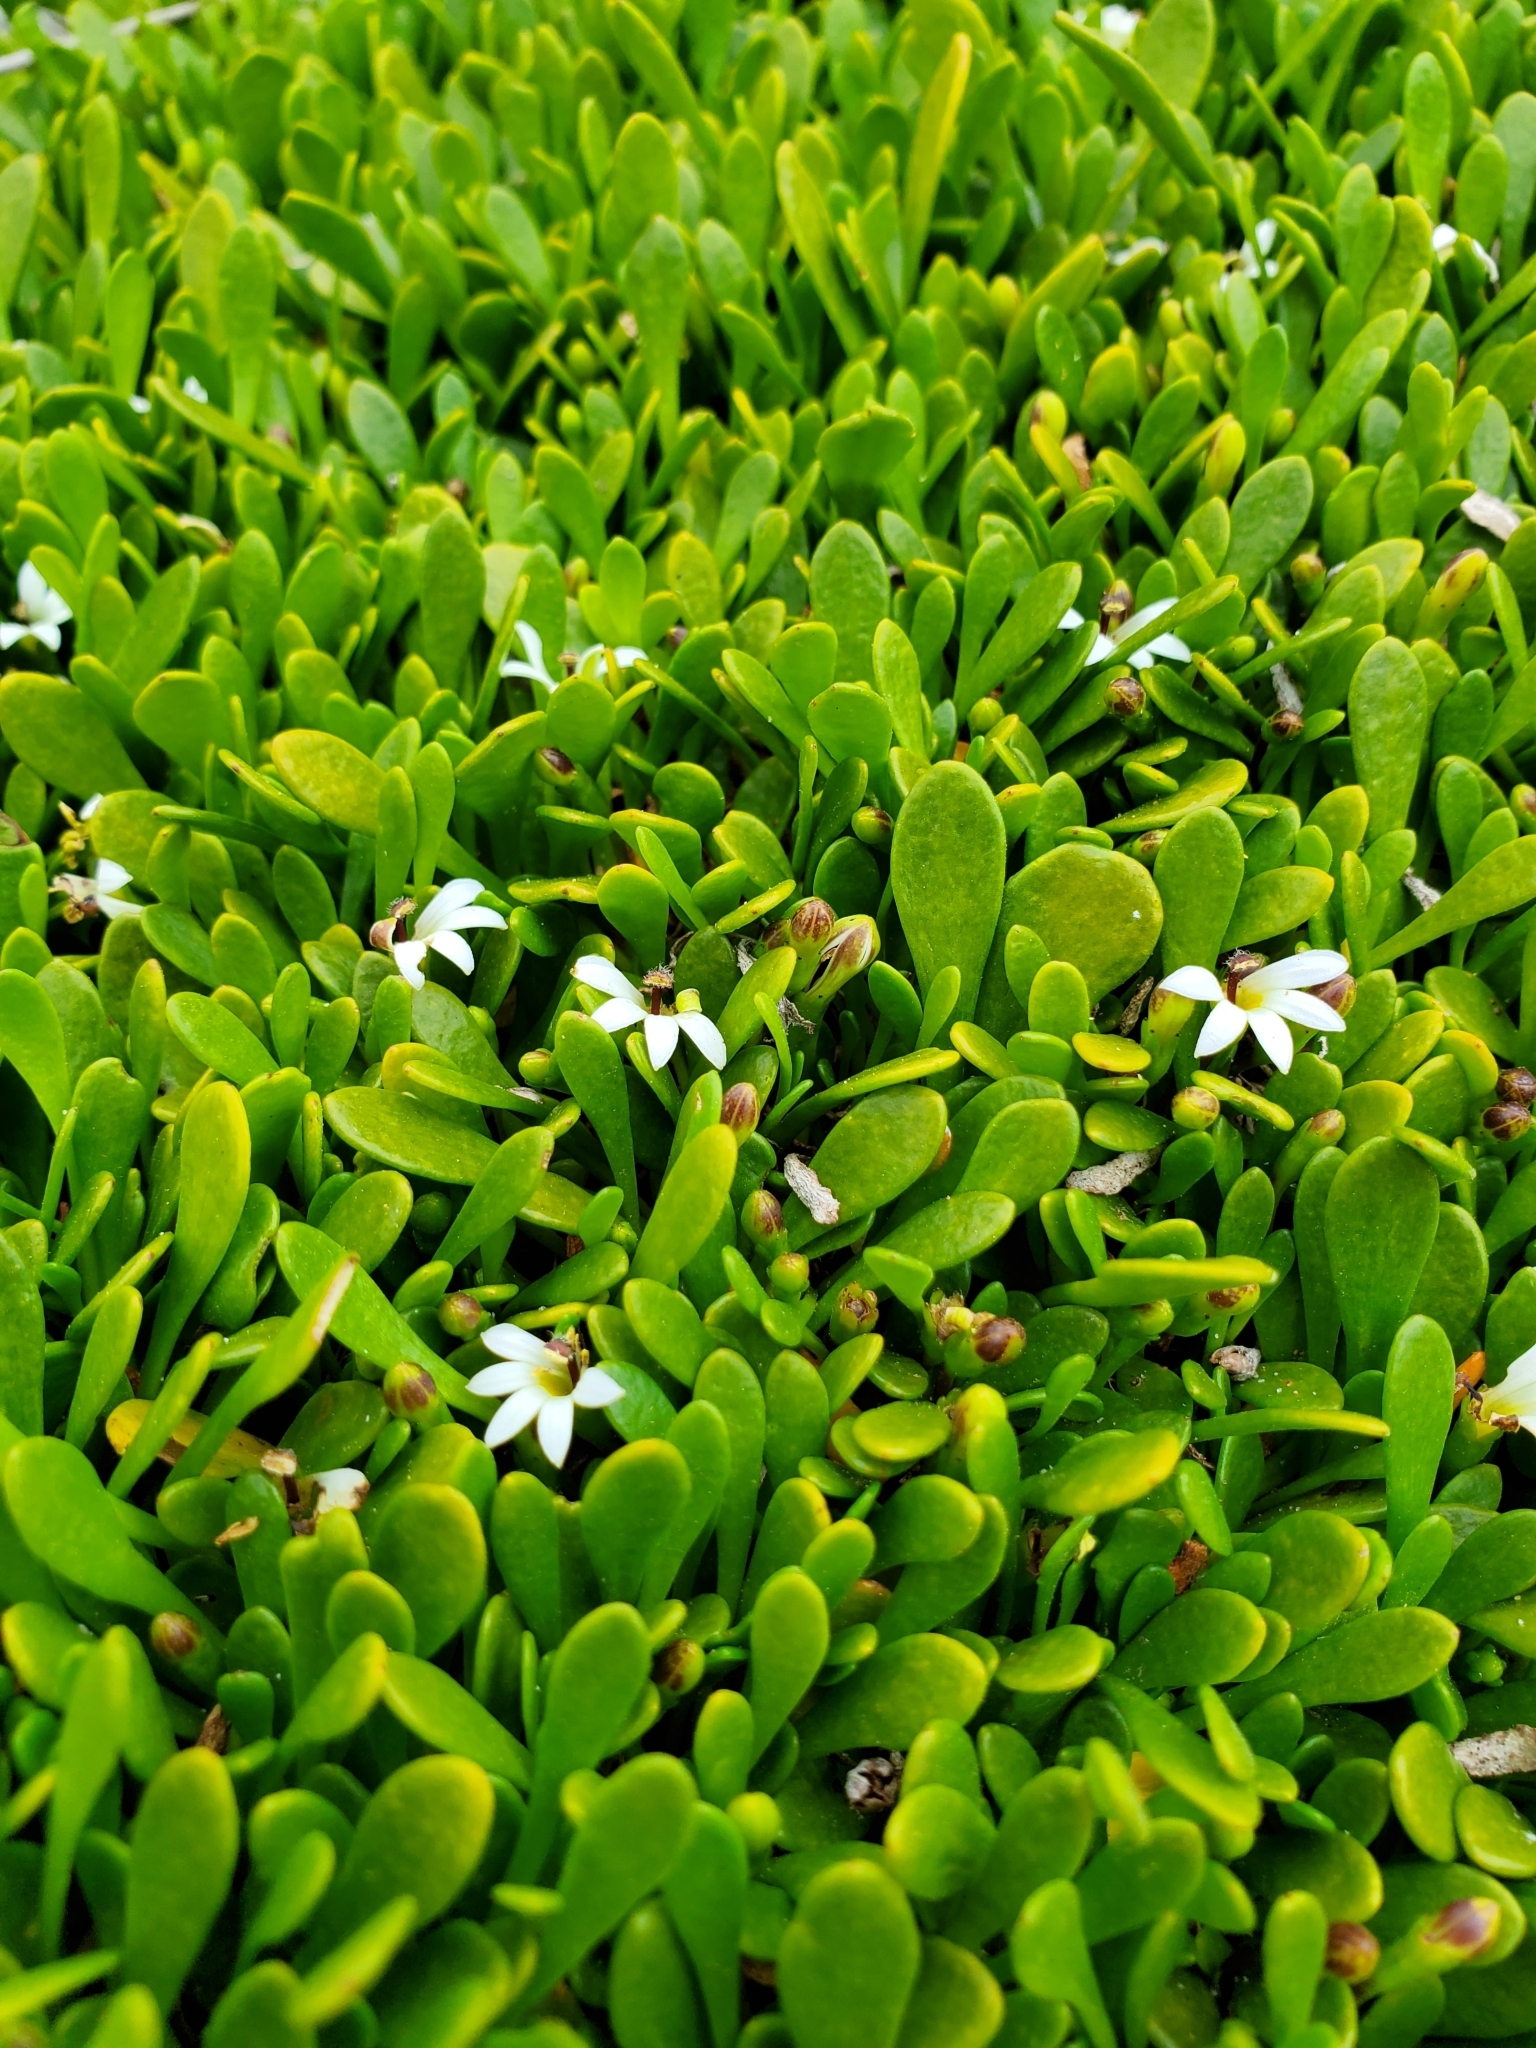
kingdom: Plantae
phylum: Tracheophyta
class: Magnoliopsida
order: Asterales
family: Goodeniaceae
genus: Goodenia
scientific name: Goodenia radicans
